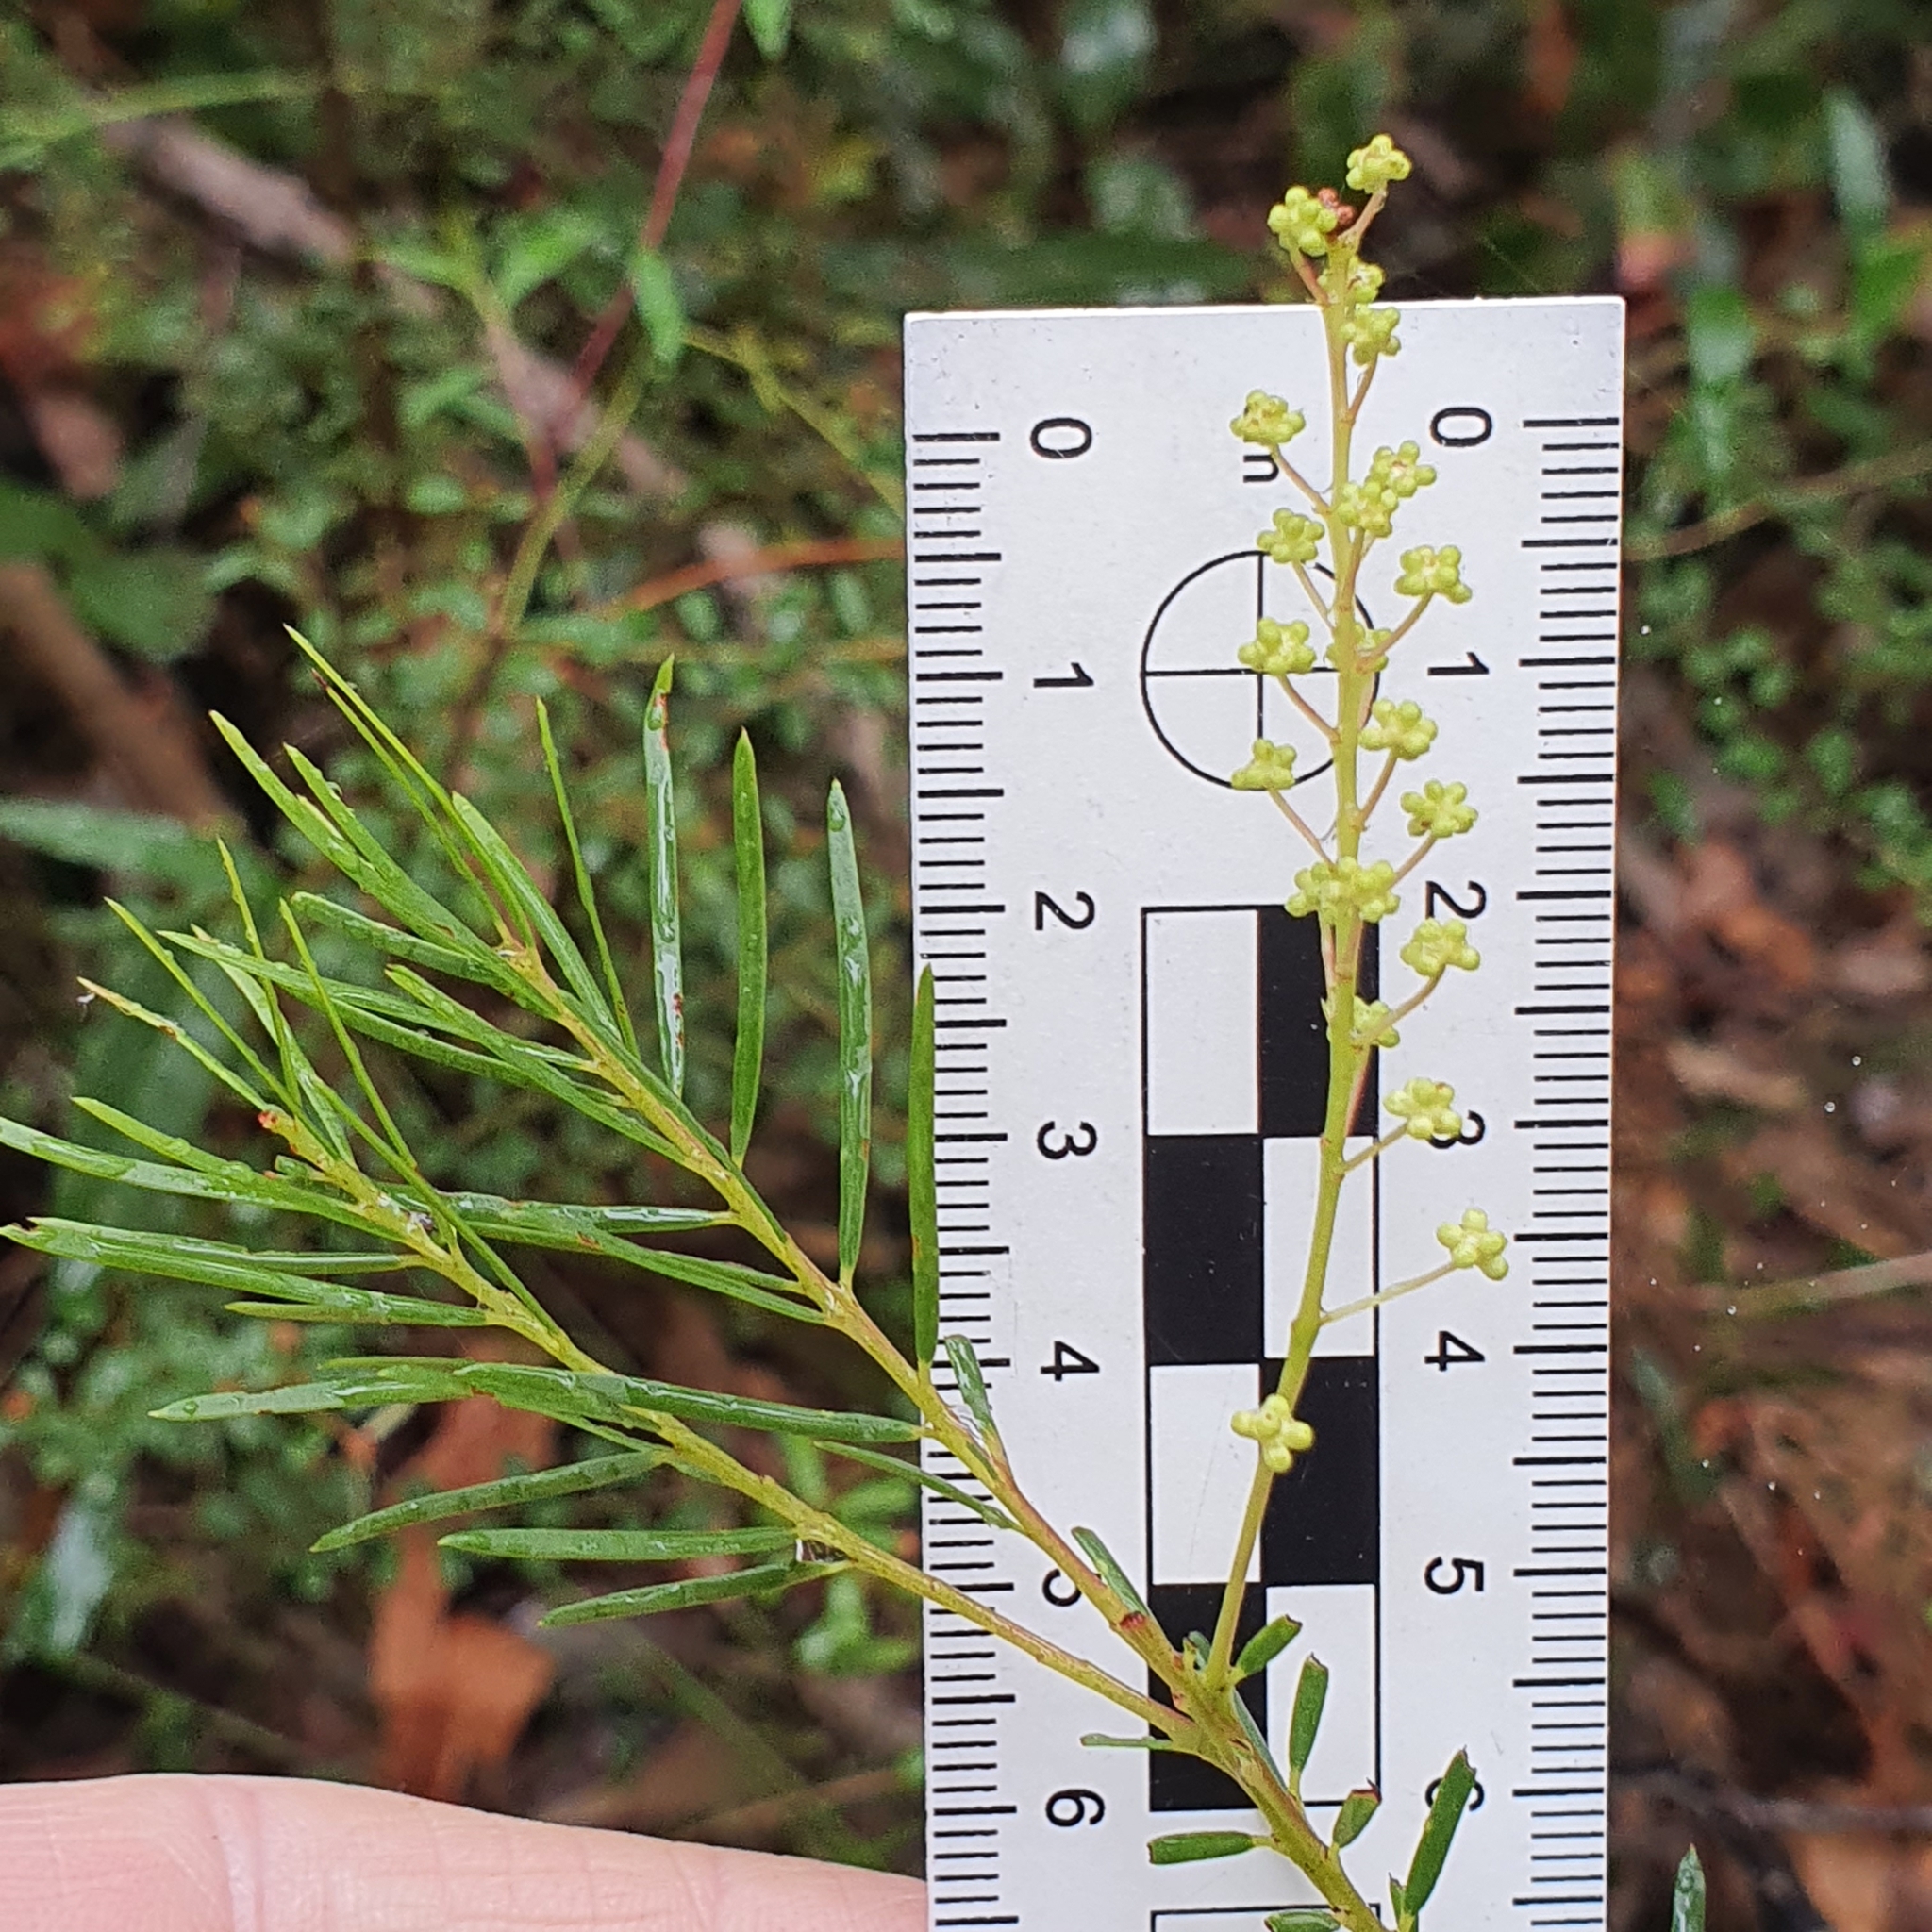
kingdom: Plantae
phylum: Tracheophyta
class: Magnoliopsida
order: Fabales
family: Fabaceae
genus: Acacia
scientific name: Acacia linifolia
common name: White wattle
